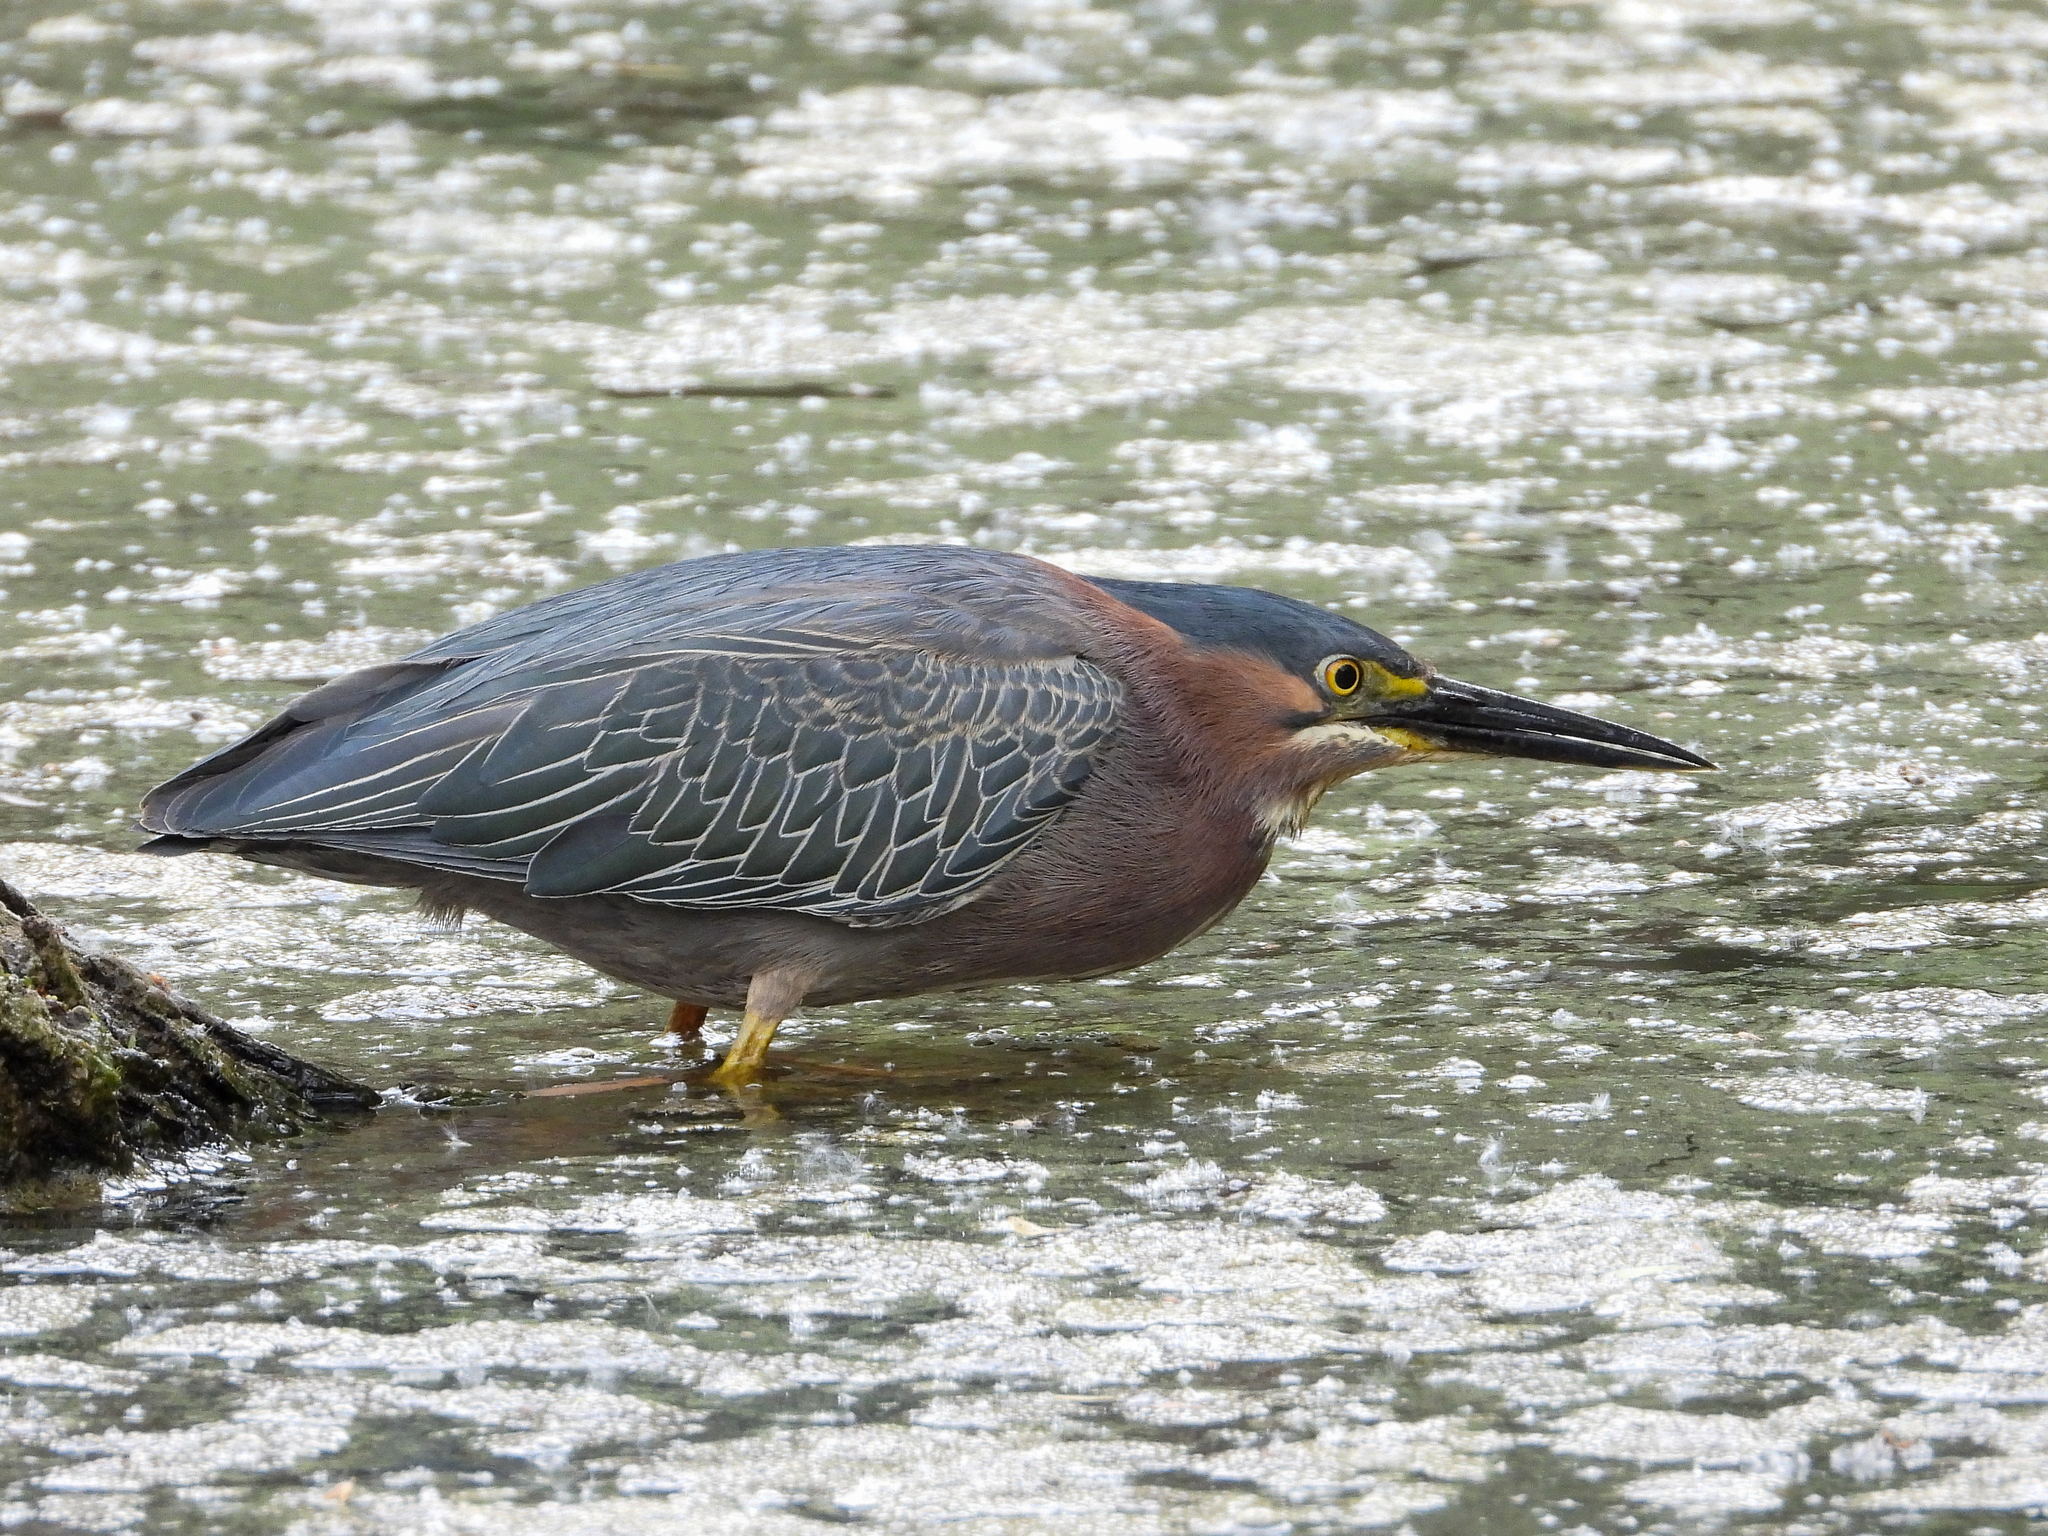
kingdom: Animalia
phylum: Chordata
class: Aves
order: Pelecaniformes
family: Ardeidae
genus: Butorides
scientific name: Butorides virescens
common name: Green heron
